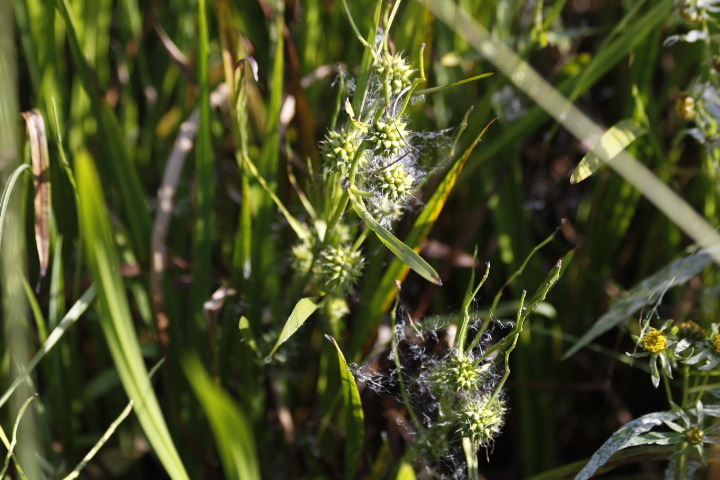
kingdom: Plantae
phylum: Tracheophyta
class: Liliopsida
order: Poales
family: Typhaceae
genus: Sparganium
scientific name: Sparganium erectum
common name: Branched bur-reed
